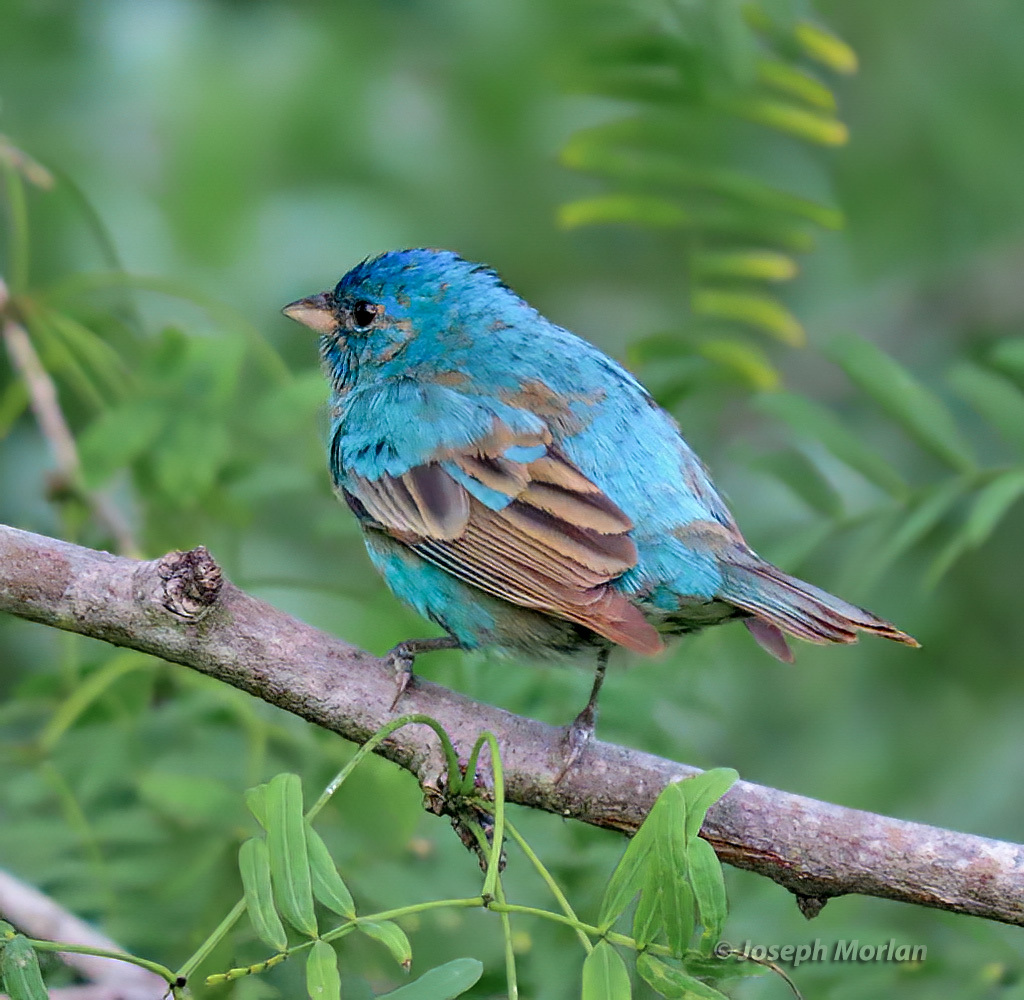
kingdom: Animalia
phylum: Chordata
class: Aves
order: Passeriformes
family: Cardinalidae
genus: Passerina
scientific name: Passerina cyanea
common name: Indigo bunting
